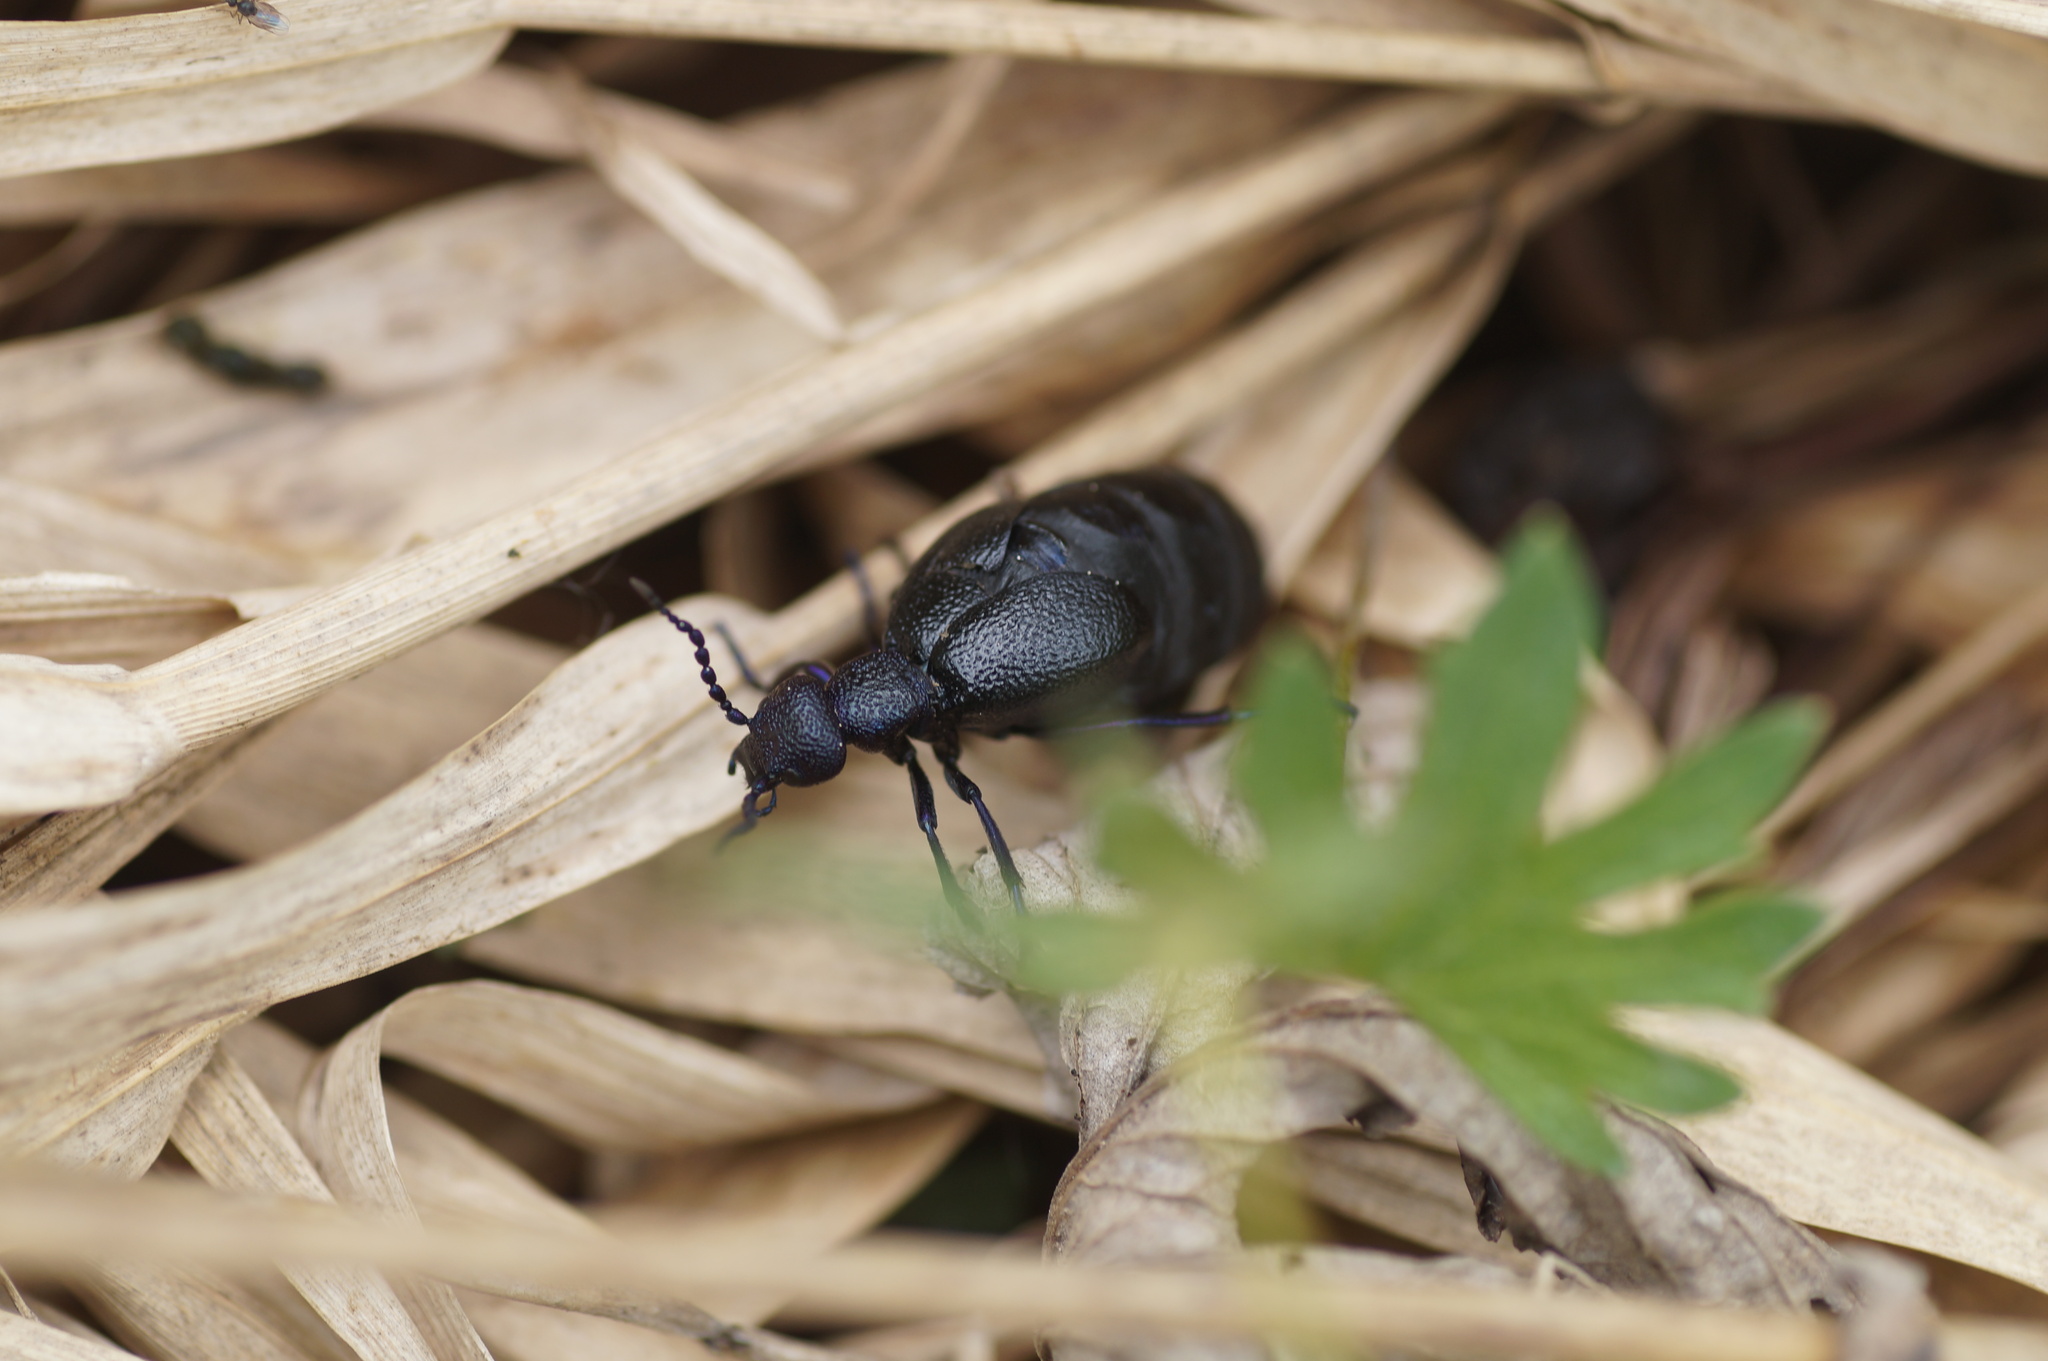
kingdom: Animalia
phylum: Arthropoda
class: Insecta
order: Coleoptera
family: Meloidae
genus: Meloe
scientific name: Meloe proscarabaeus
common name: Black oil-beetle
